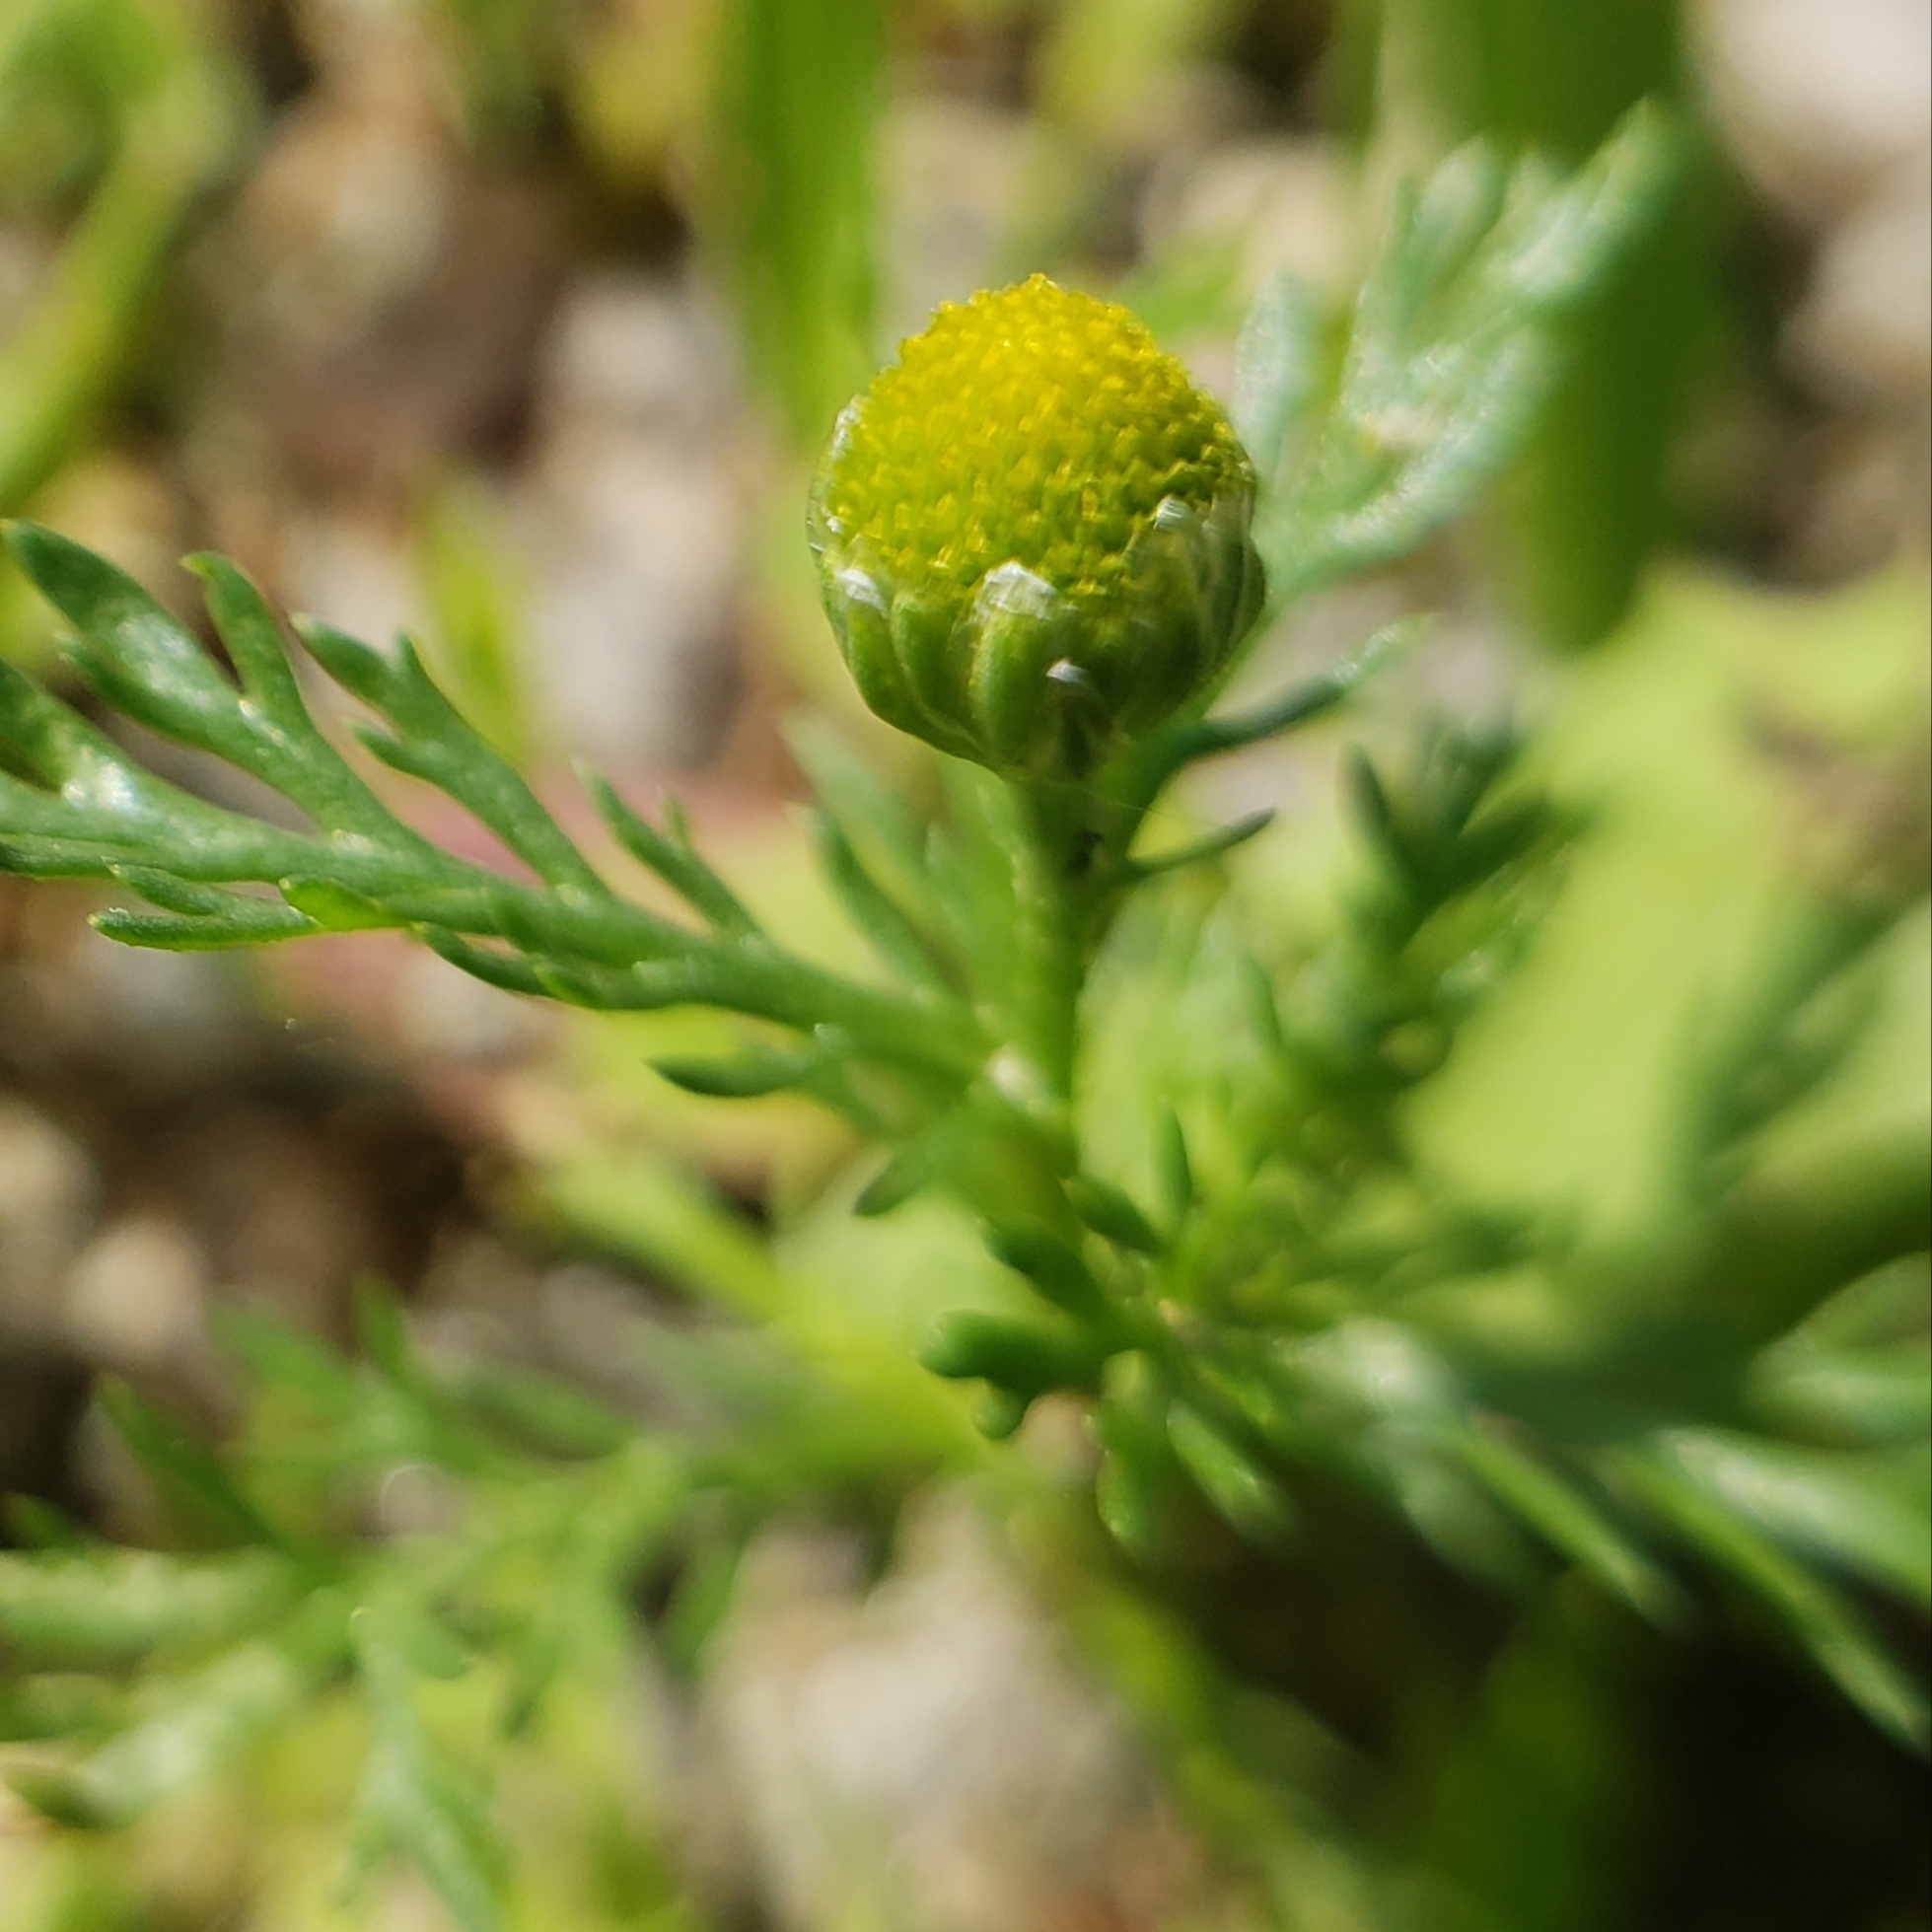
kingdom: Plantae
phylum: Tracheophyta
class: Magnoliopsida
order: Asterales
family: Asteraceae
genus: Matricaria
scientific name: Matricaria discoidea
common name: Disc mayweed
